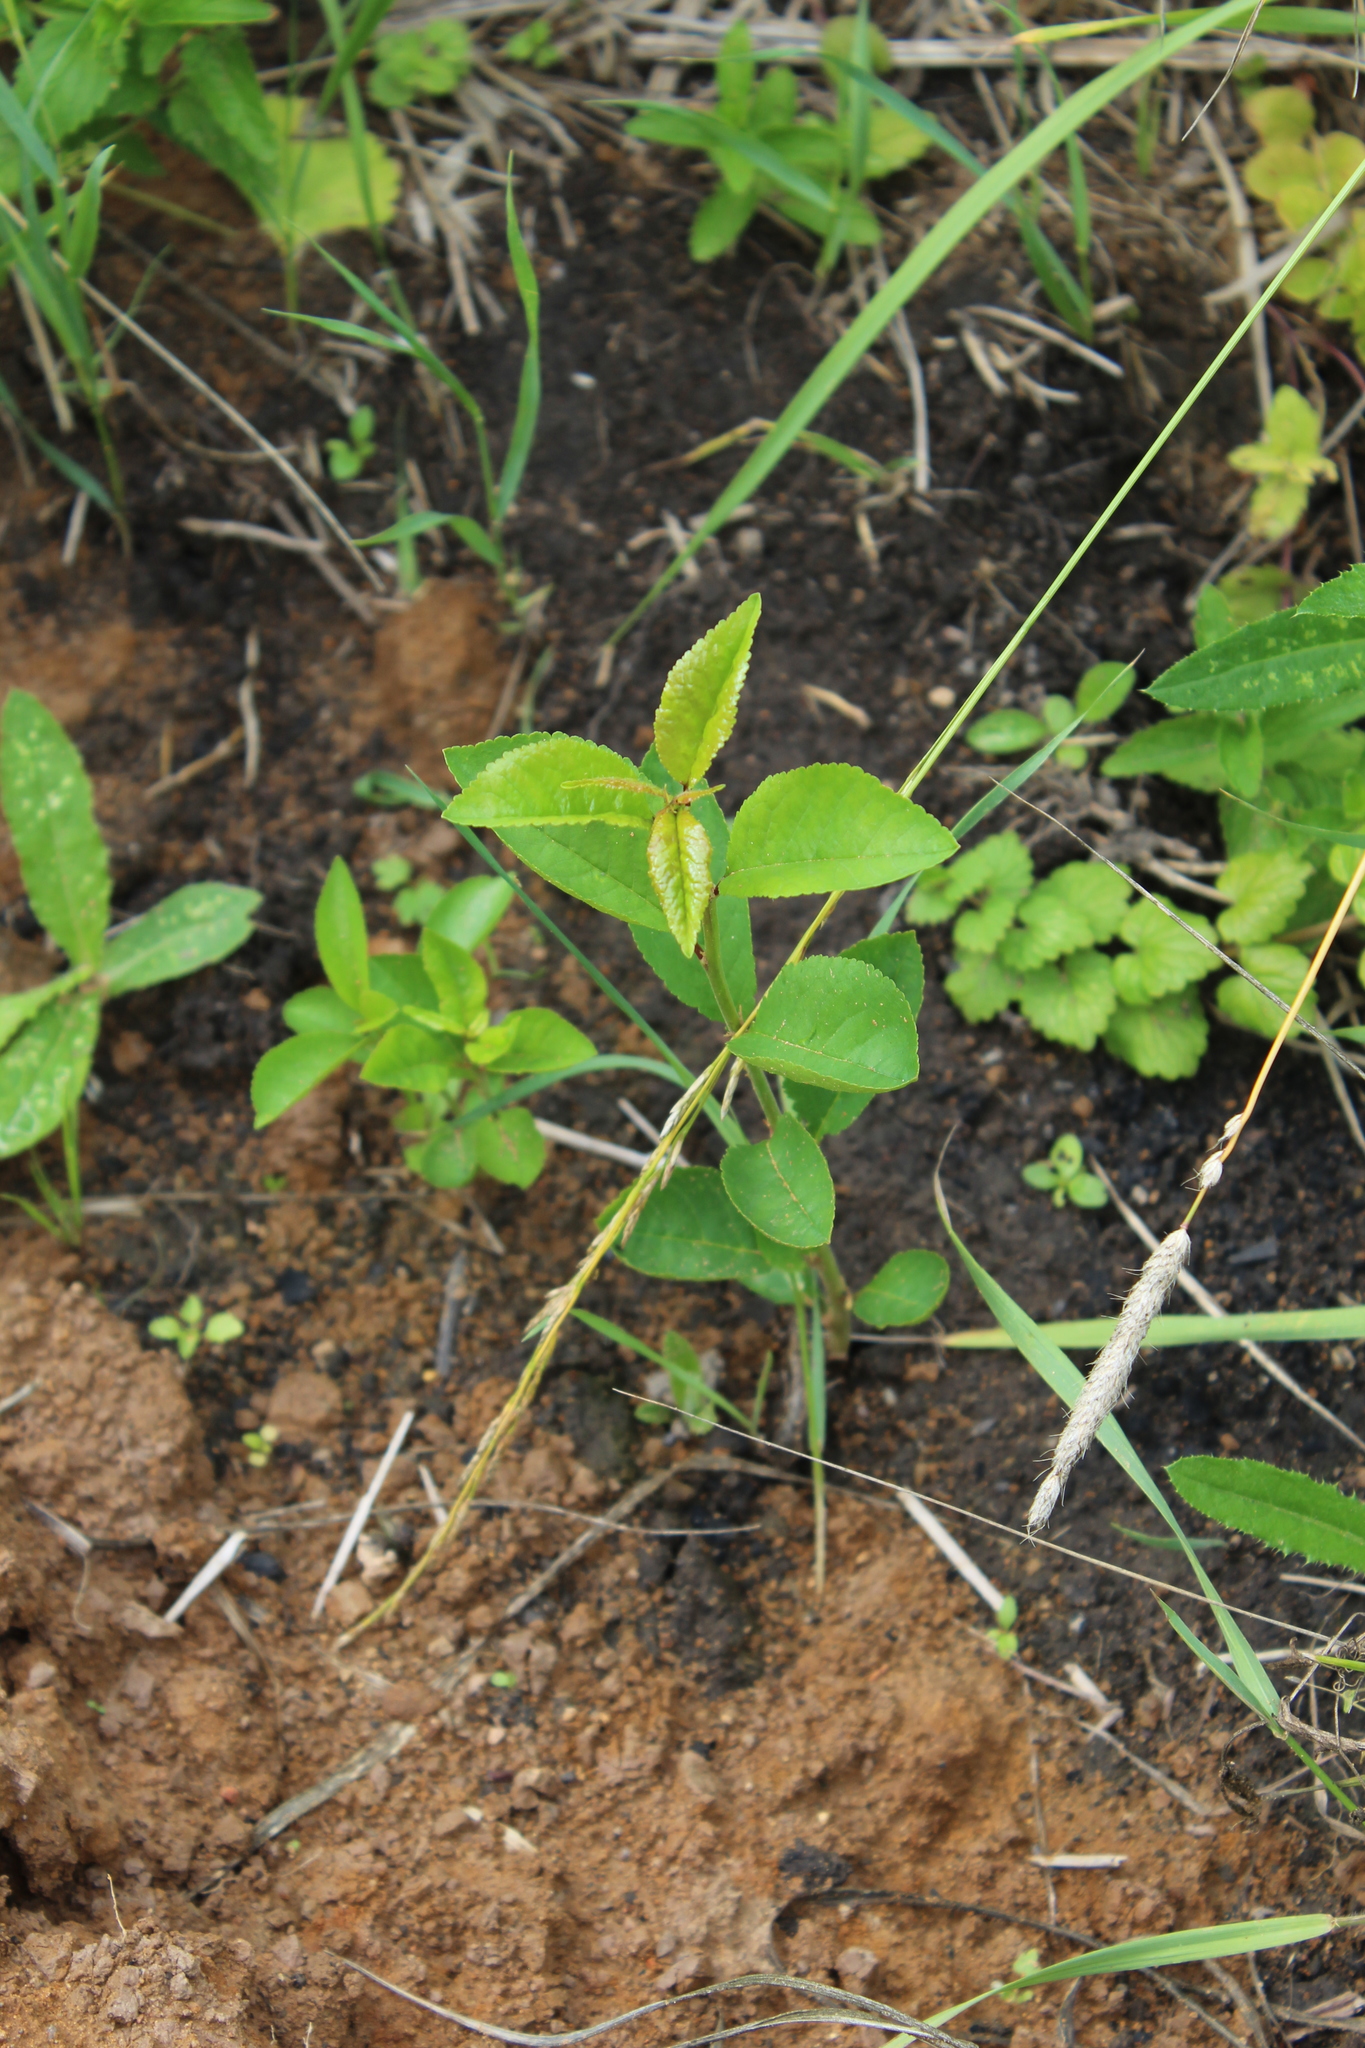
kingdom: Plantae
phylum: Tracheophyta
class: Magnoliopsida
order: Rosales
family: Rosaceae
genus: Prunus
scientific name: Prunus cerasus
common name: Morello cherry
